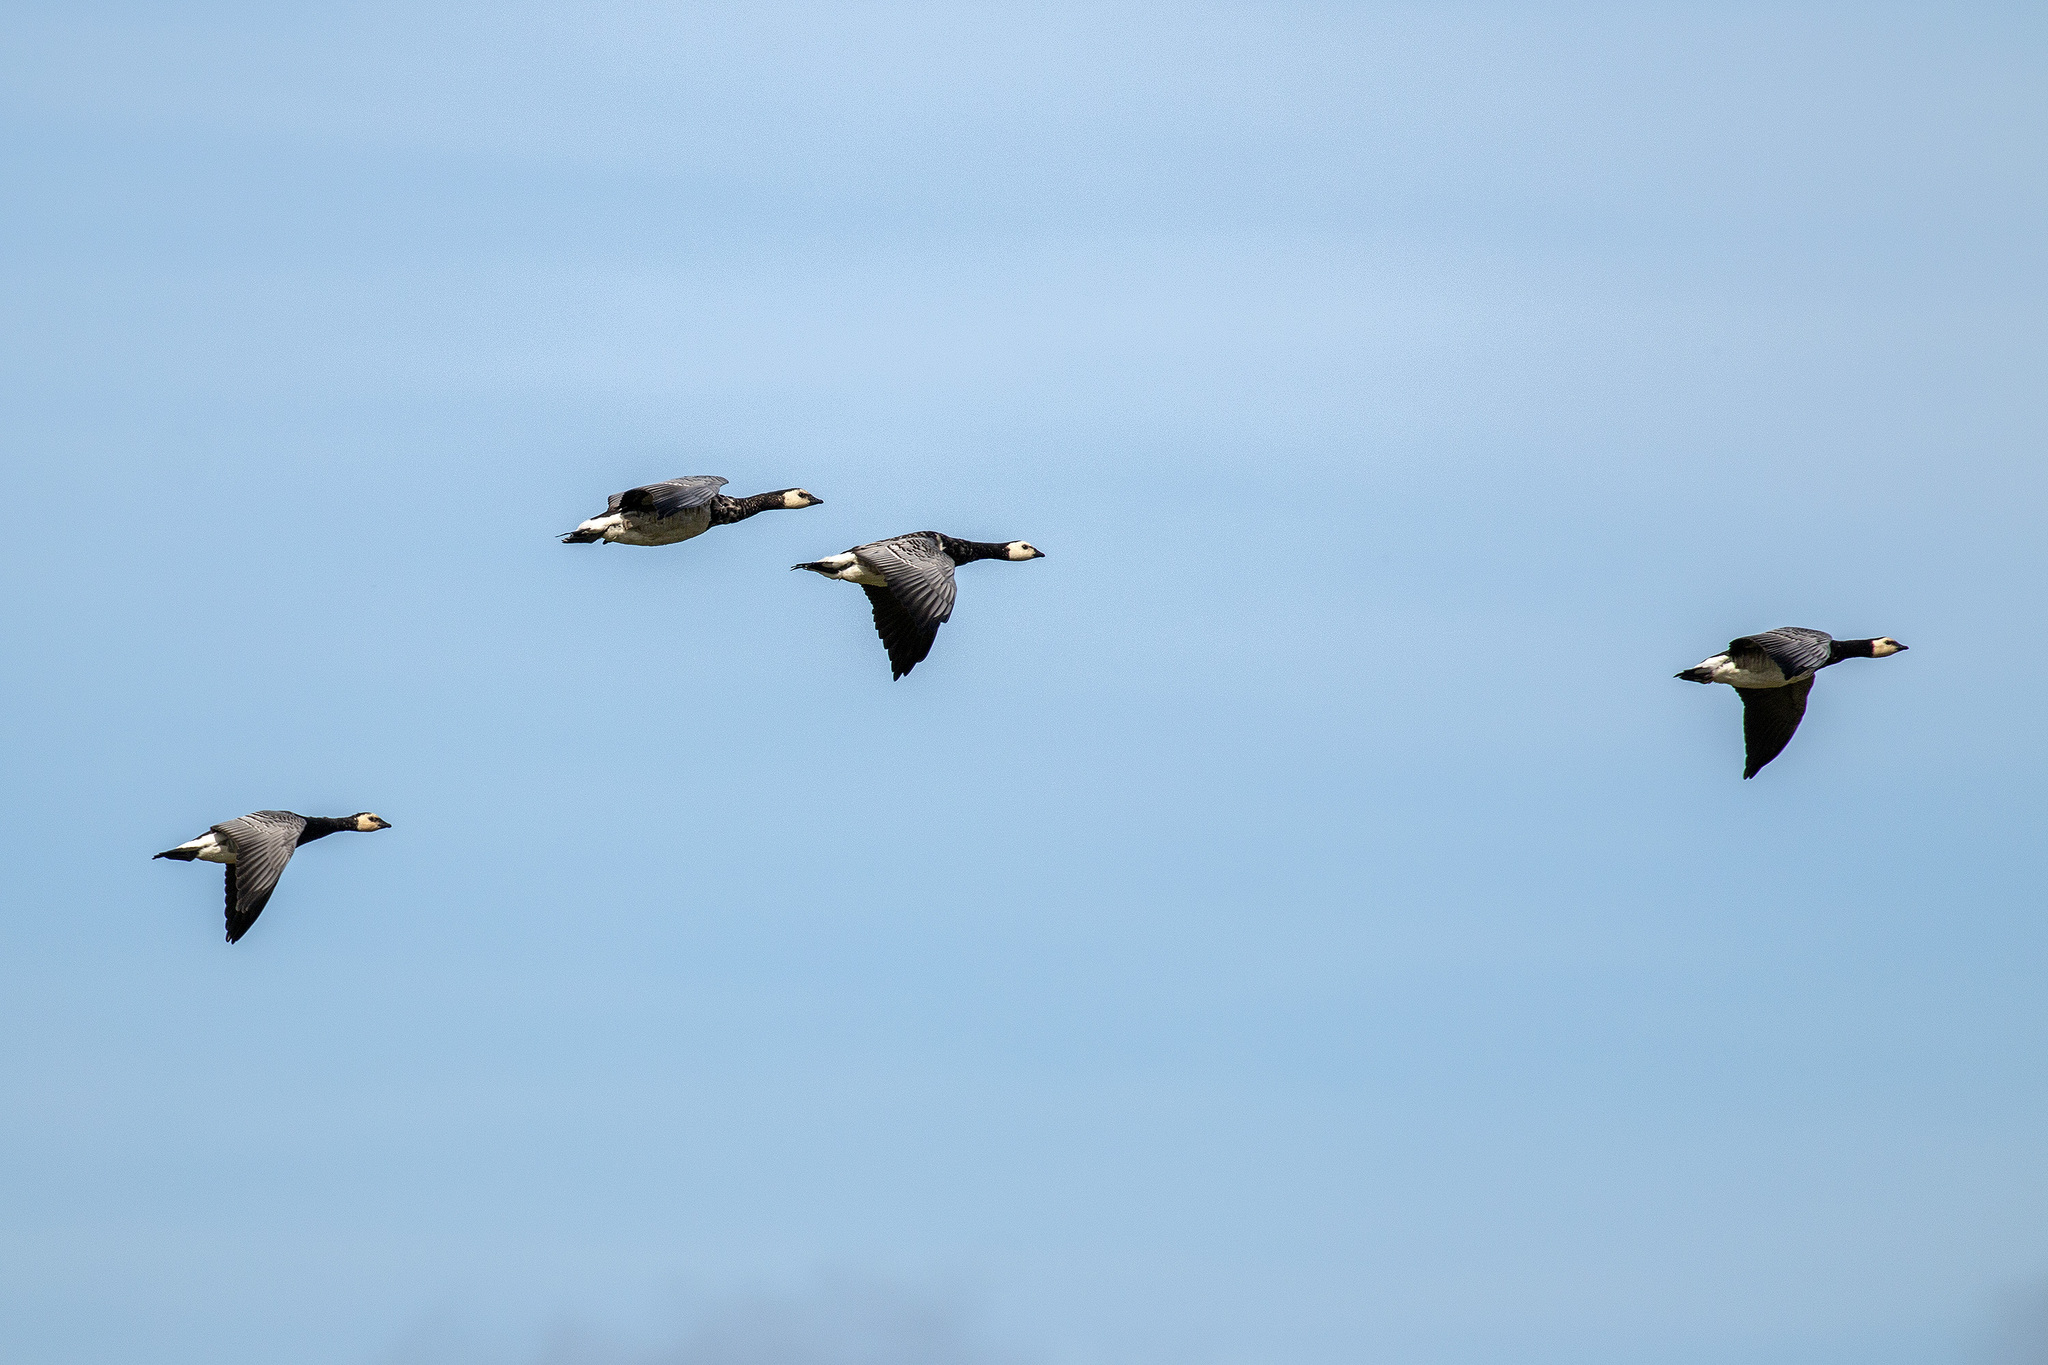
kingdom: Animalia
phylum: Chordata
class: Aves
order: Anseriformes
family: Anatidae
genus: Branta
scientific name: Branta leucopsis
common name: Barnacle goose
